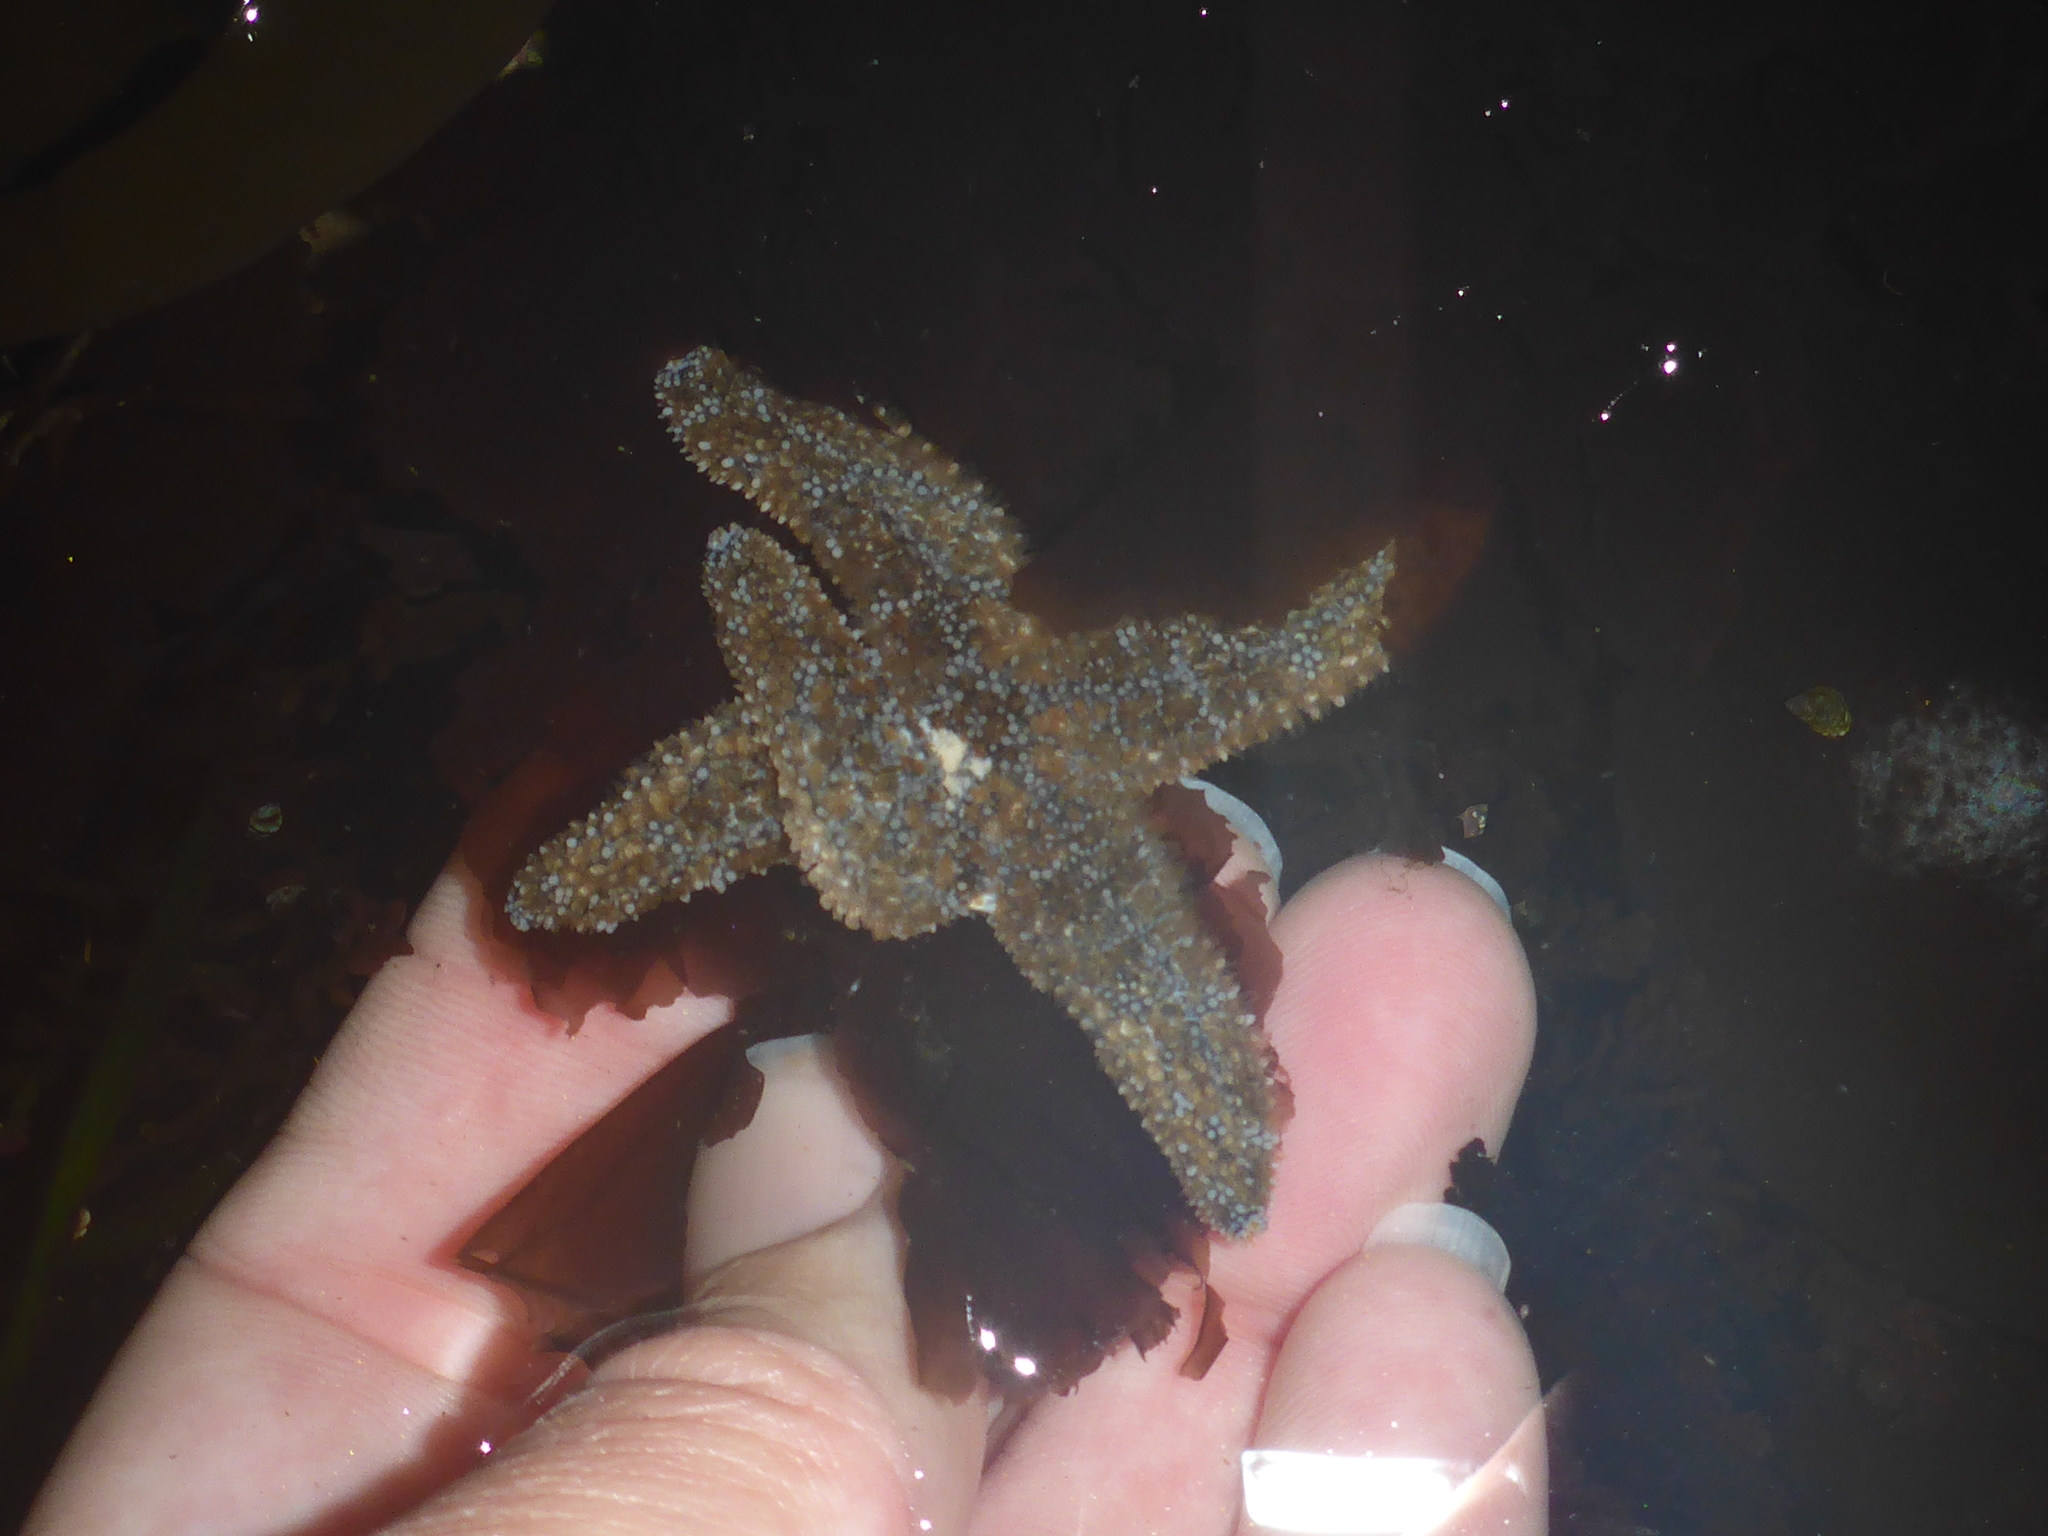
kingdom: Animalia
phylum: Echinodermata
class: Asteroidea
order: Forcipulatida
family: Asteriidae
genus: Pisaster
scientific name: Pisaster ochraceus
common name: Ochre stars
